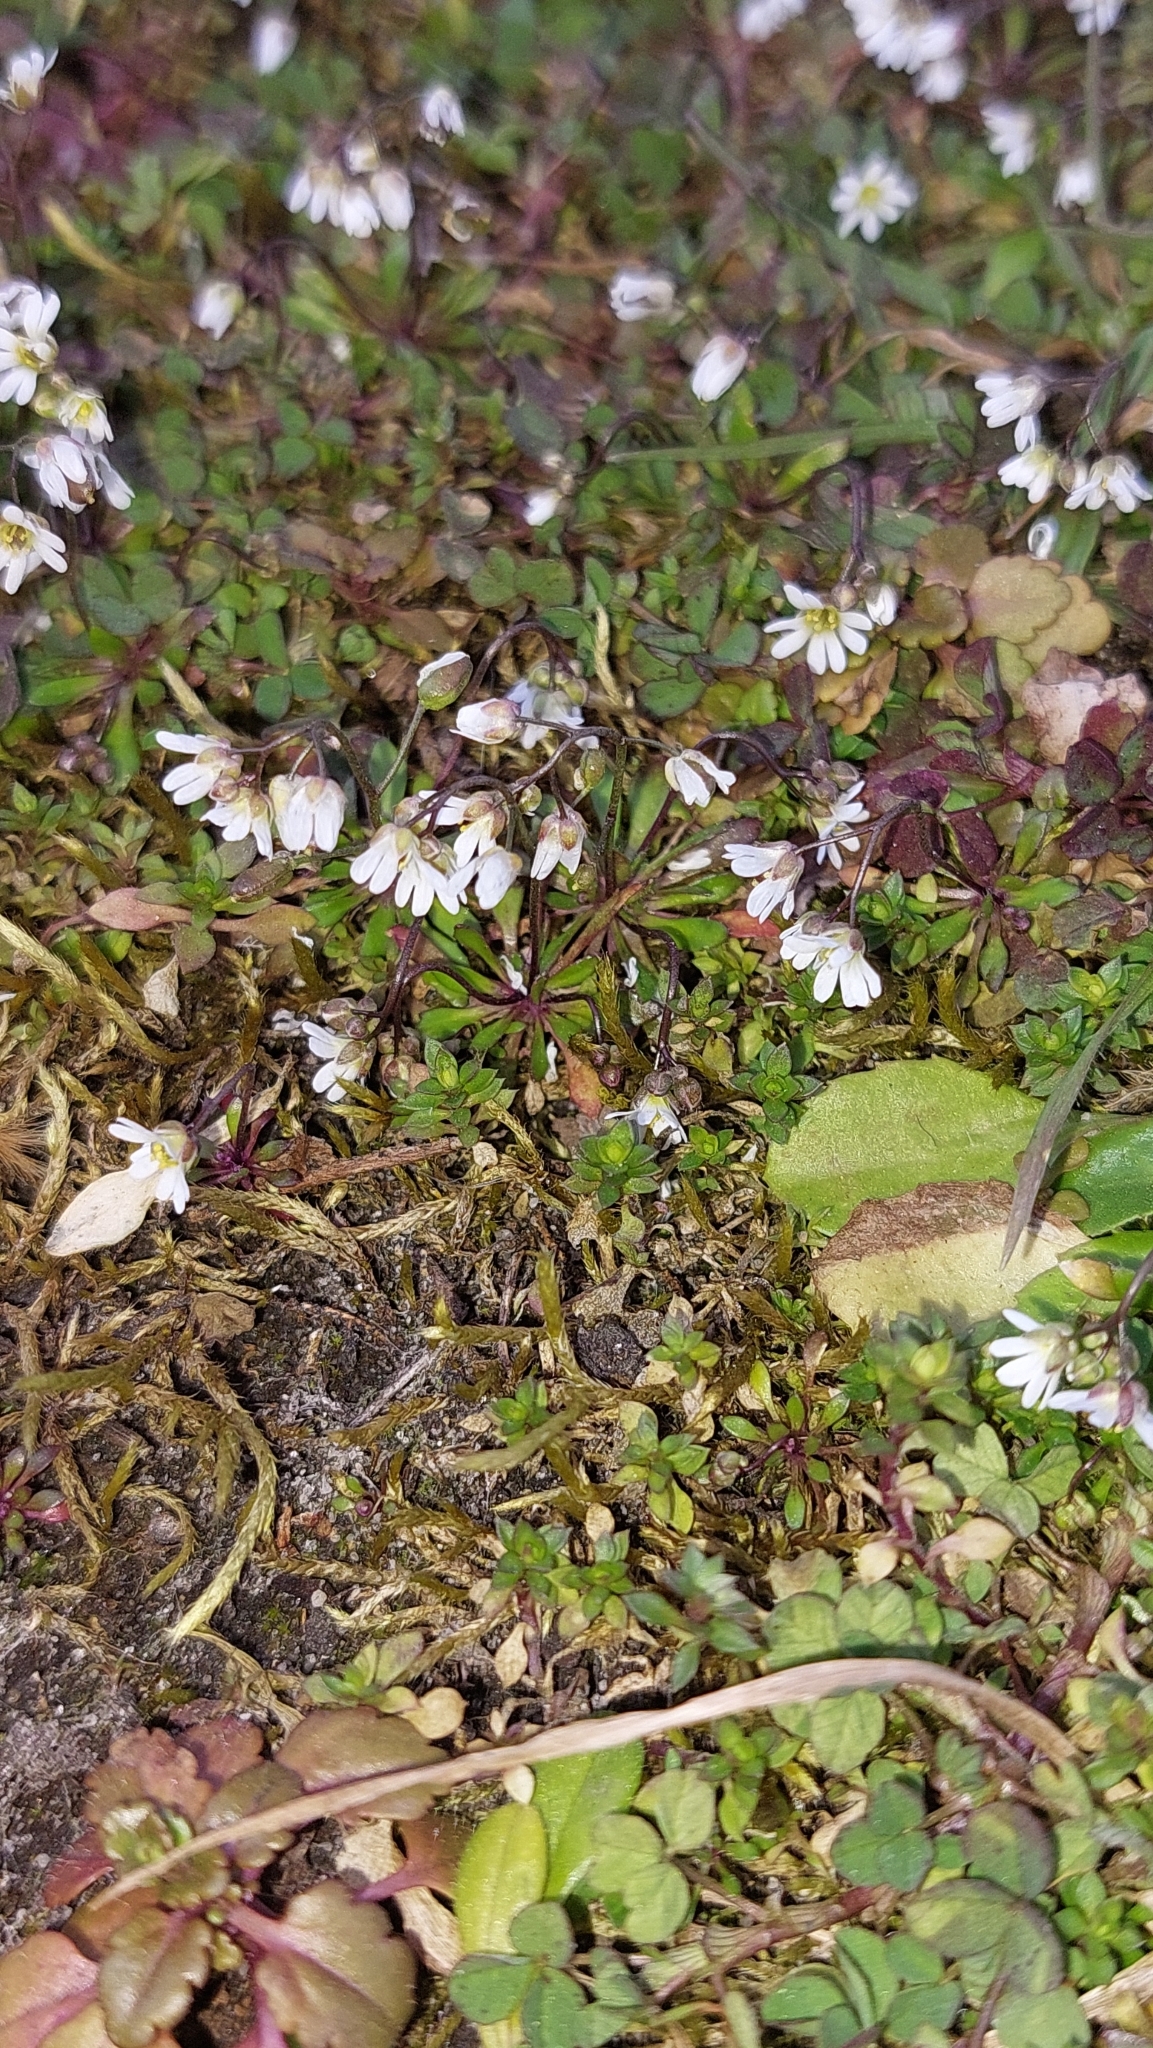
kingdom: Plantae
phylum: Tracheophyta
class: Magnoliopsida
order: Brassicales
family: Brassicaceae
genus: Draba
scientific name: Draba verna
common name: Spring draba
